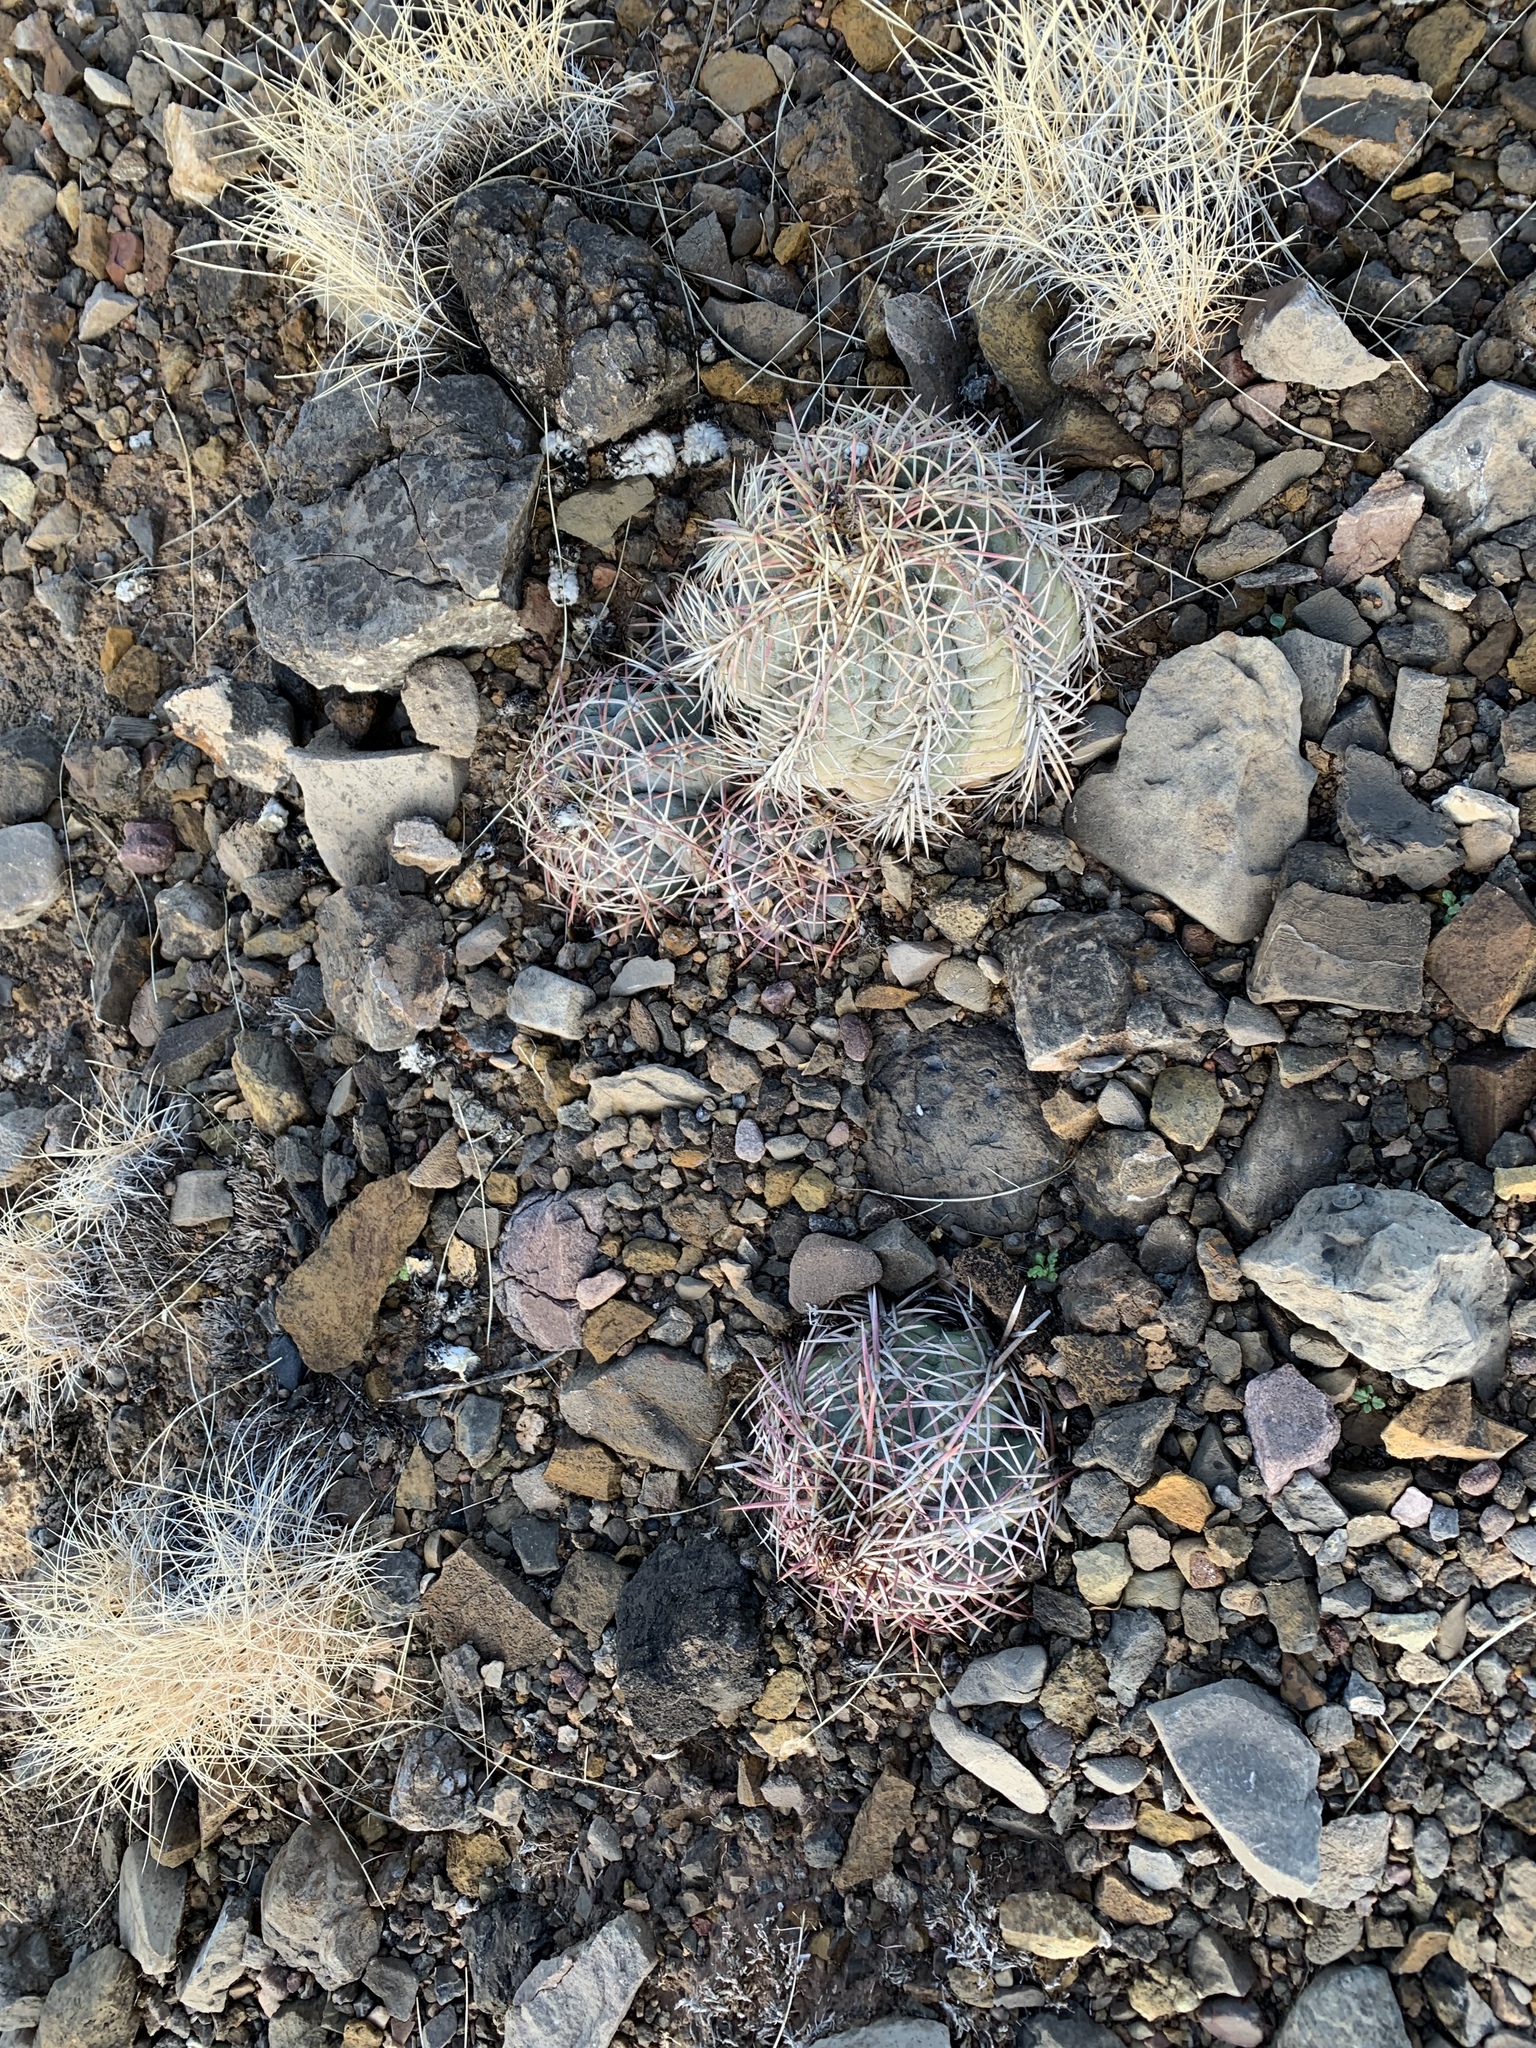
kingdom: Plantae
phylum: Tracheophyta
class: Magnoliopsida
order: Caryophyllales
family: Cactaceae
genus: Echinocactus
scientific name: Echinocactus horizonthalonius
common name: Devilshead
